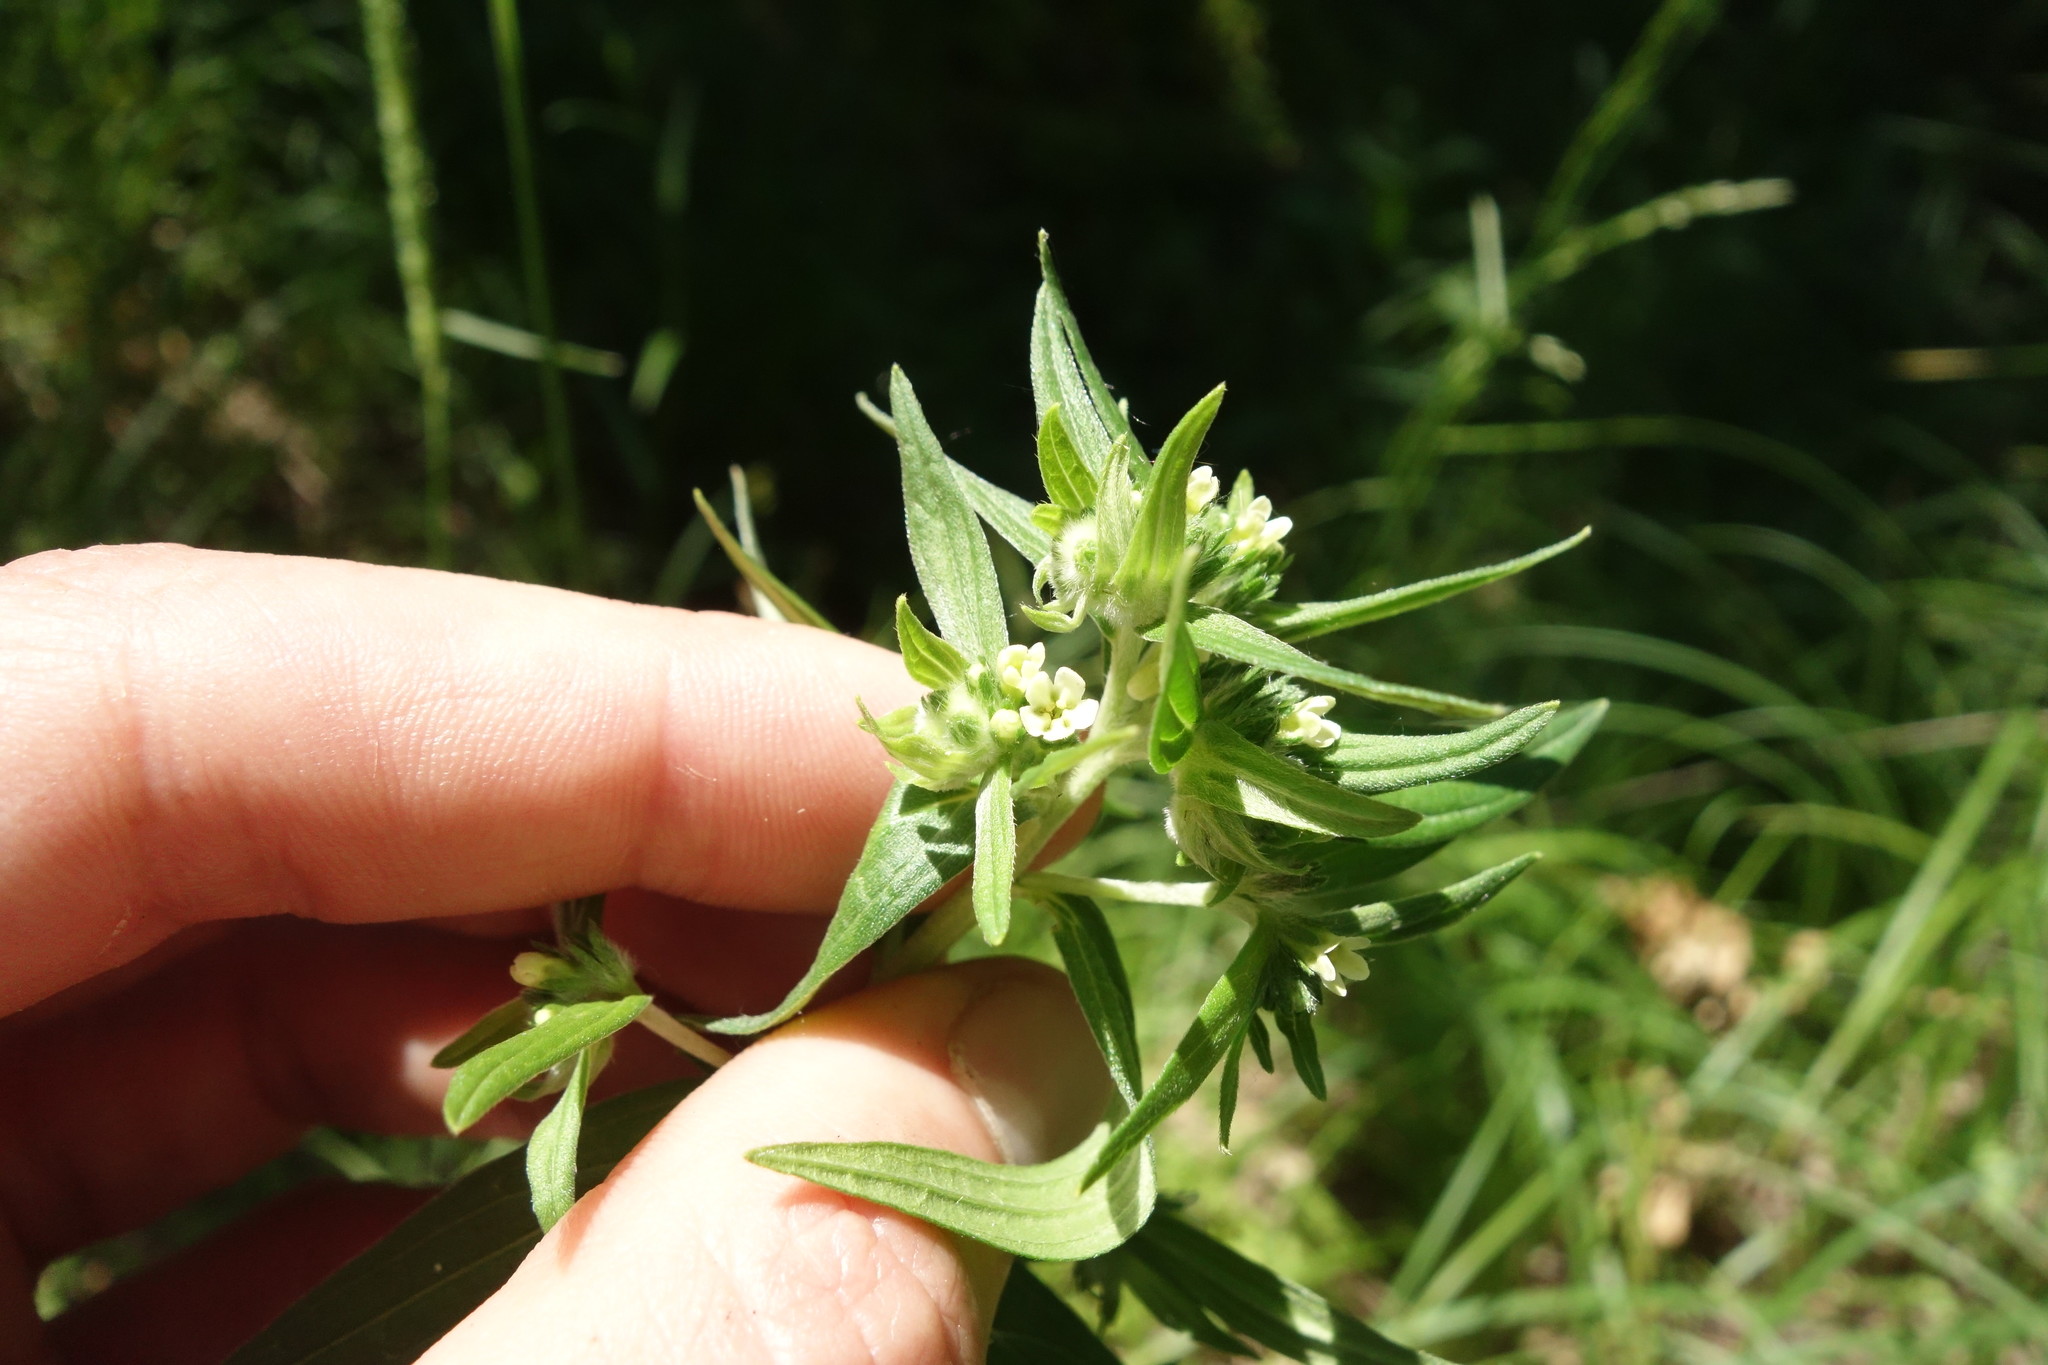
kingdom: Plantae
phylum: Tracheophyta
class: Magnoliopsida
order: Boraginales
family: Boraginaceae
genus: Lithospermum
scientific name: Lithospermum officinale
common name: Common gromwell
